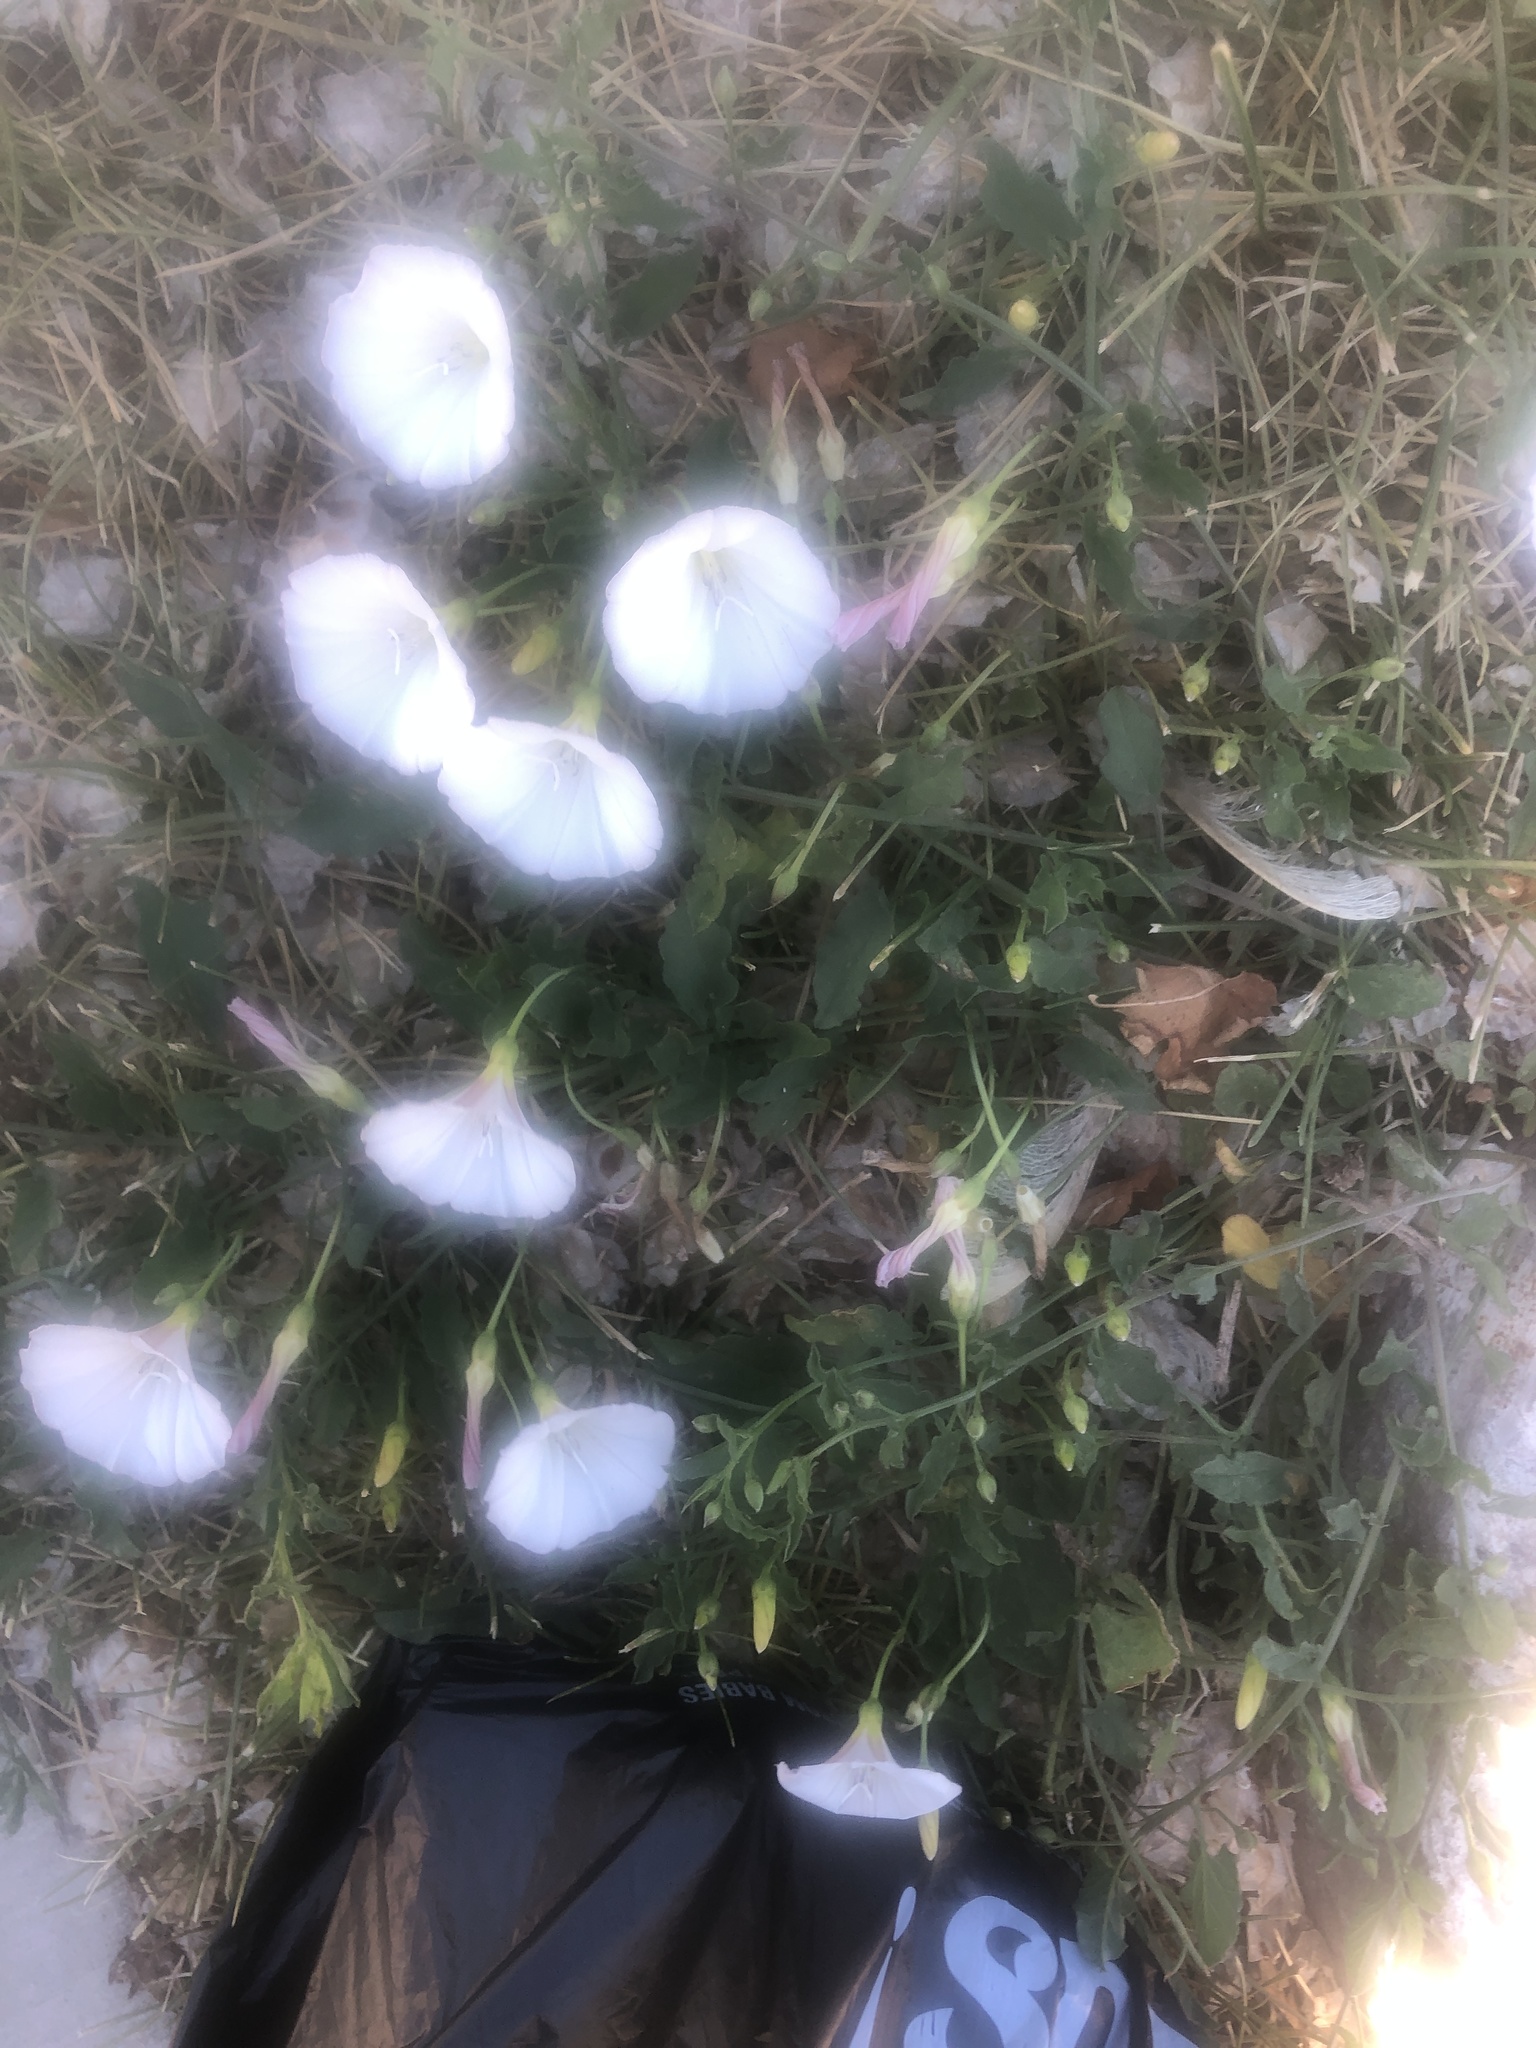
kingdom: Plantae
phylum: Tracheophyta
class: Magnoliopsida
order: Solanales
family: Convolvulaceae
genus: Convolvulus
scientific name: Convolvulus arvensis
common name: Field bindweed
